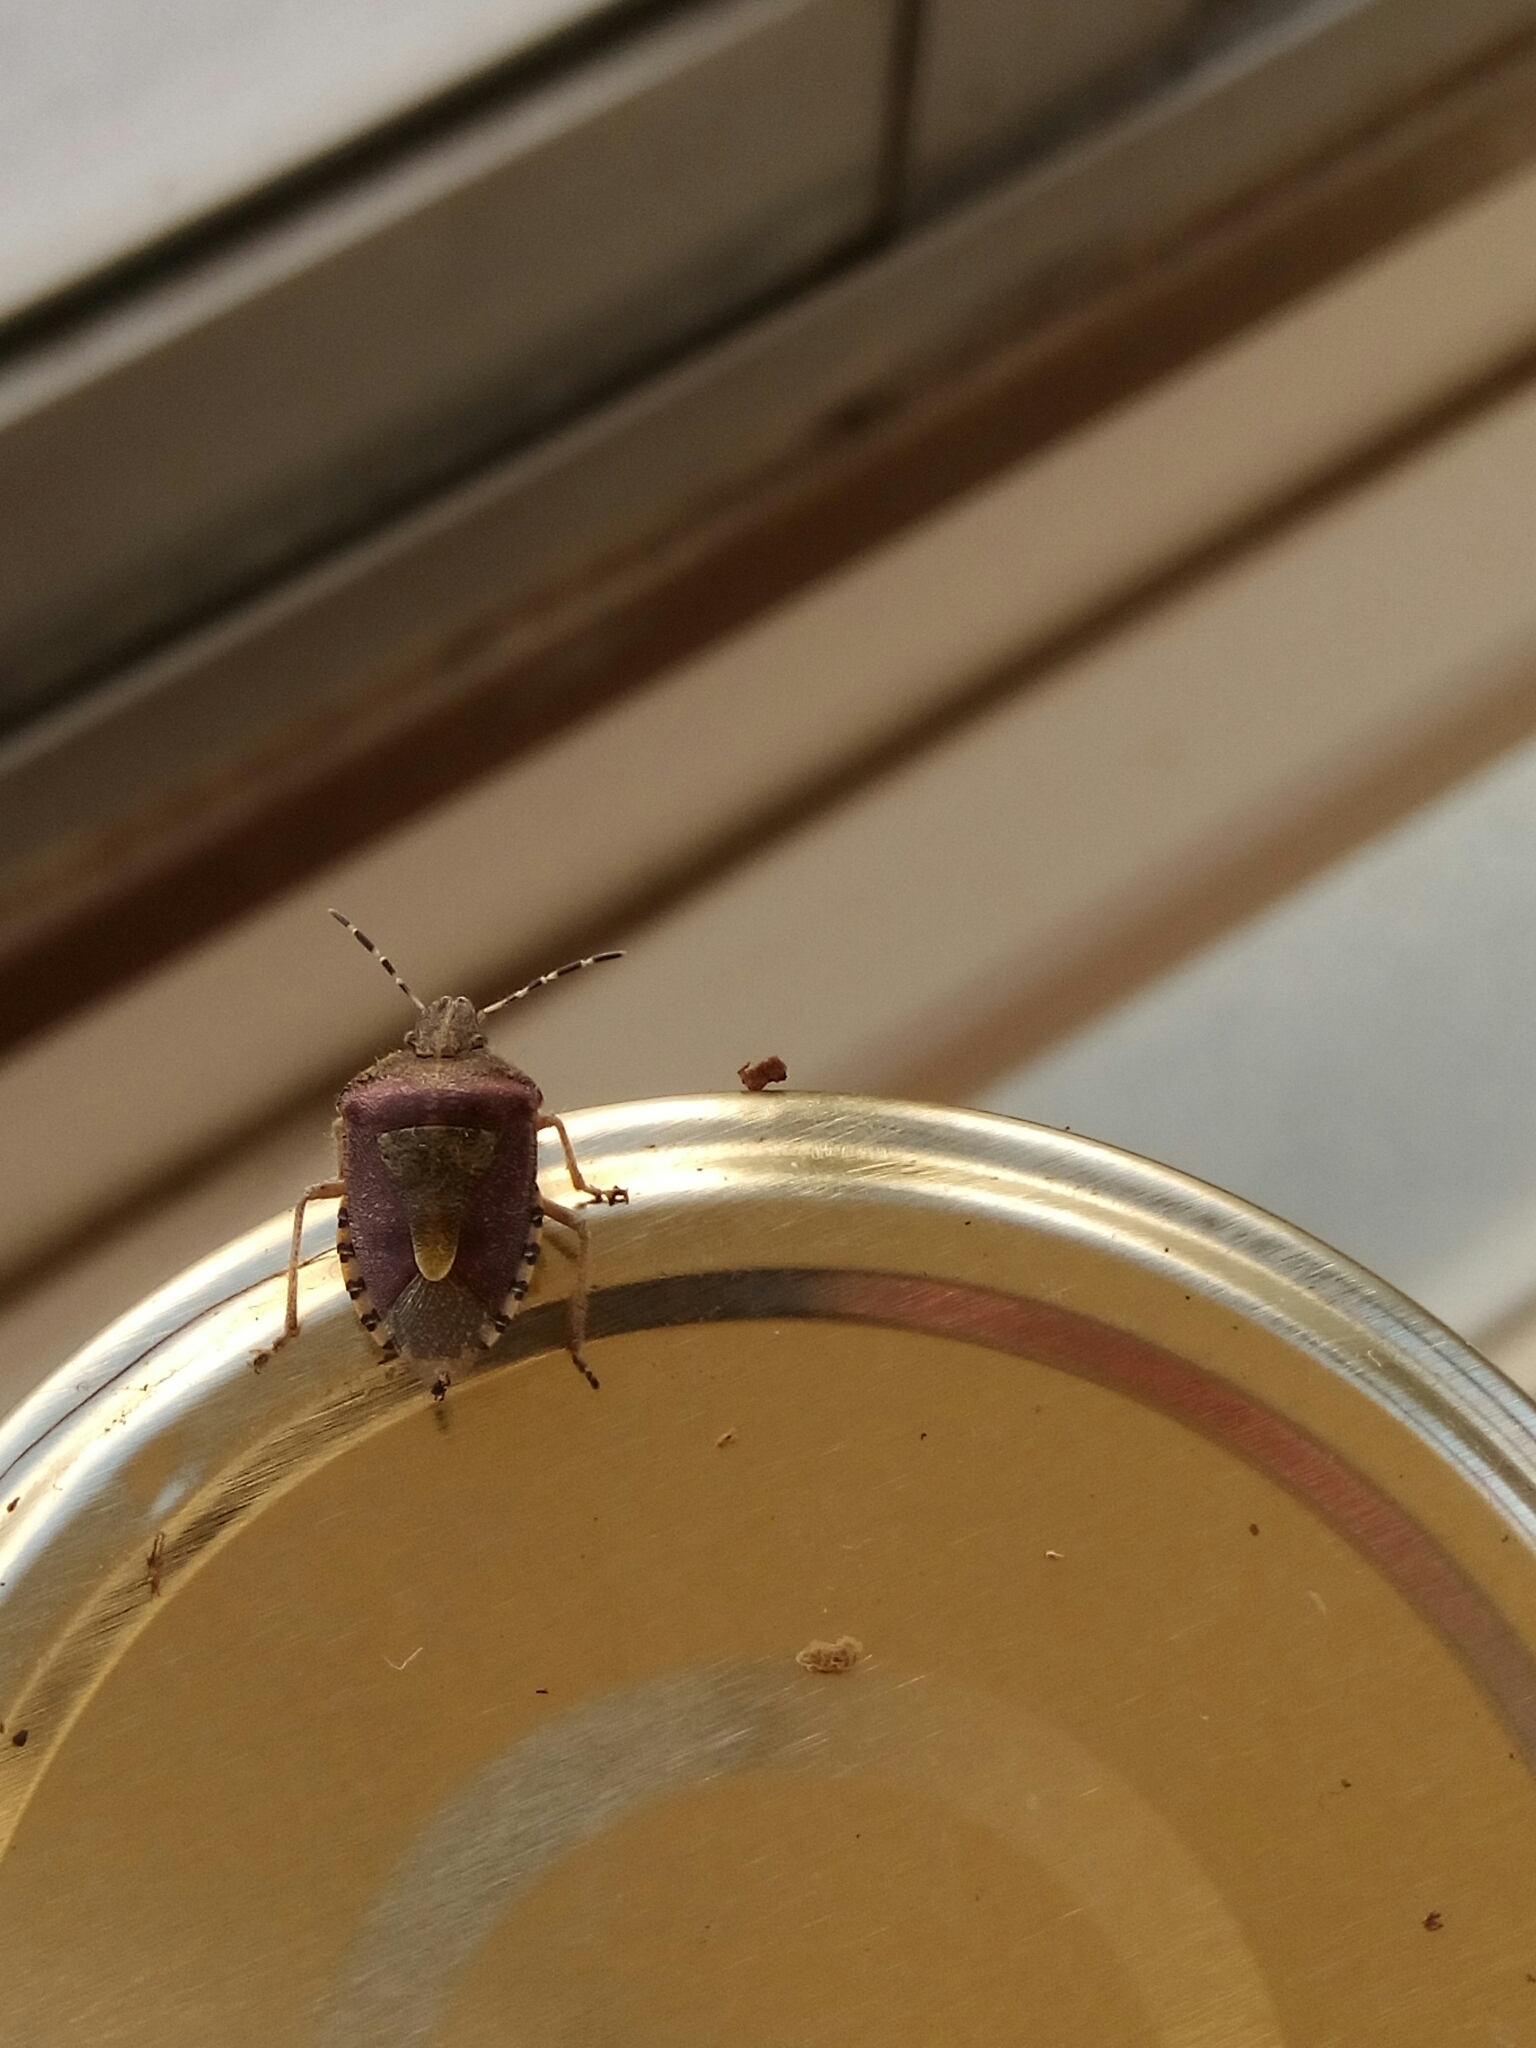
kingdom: Animalia
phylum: Arthropoda
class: Insecta
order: Hemiptera
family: Pentatomidae
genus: Dolycoris
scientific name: Dolycoris baccarum
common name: Sloe bug
